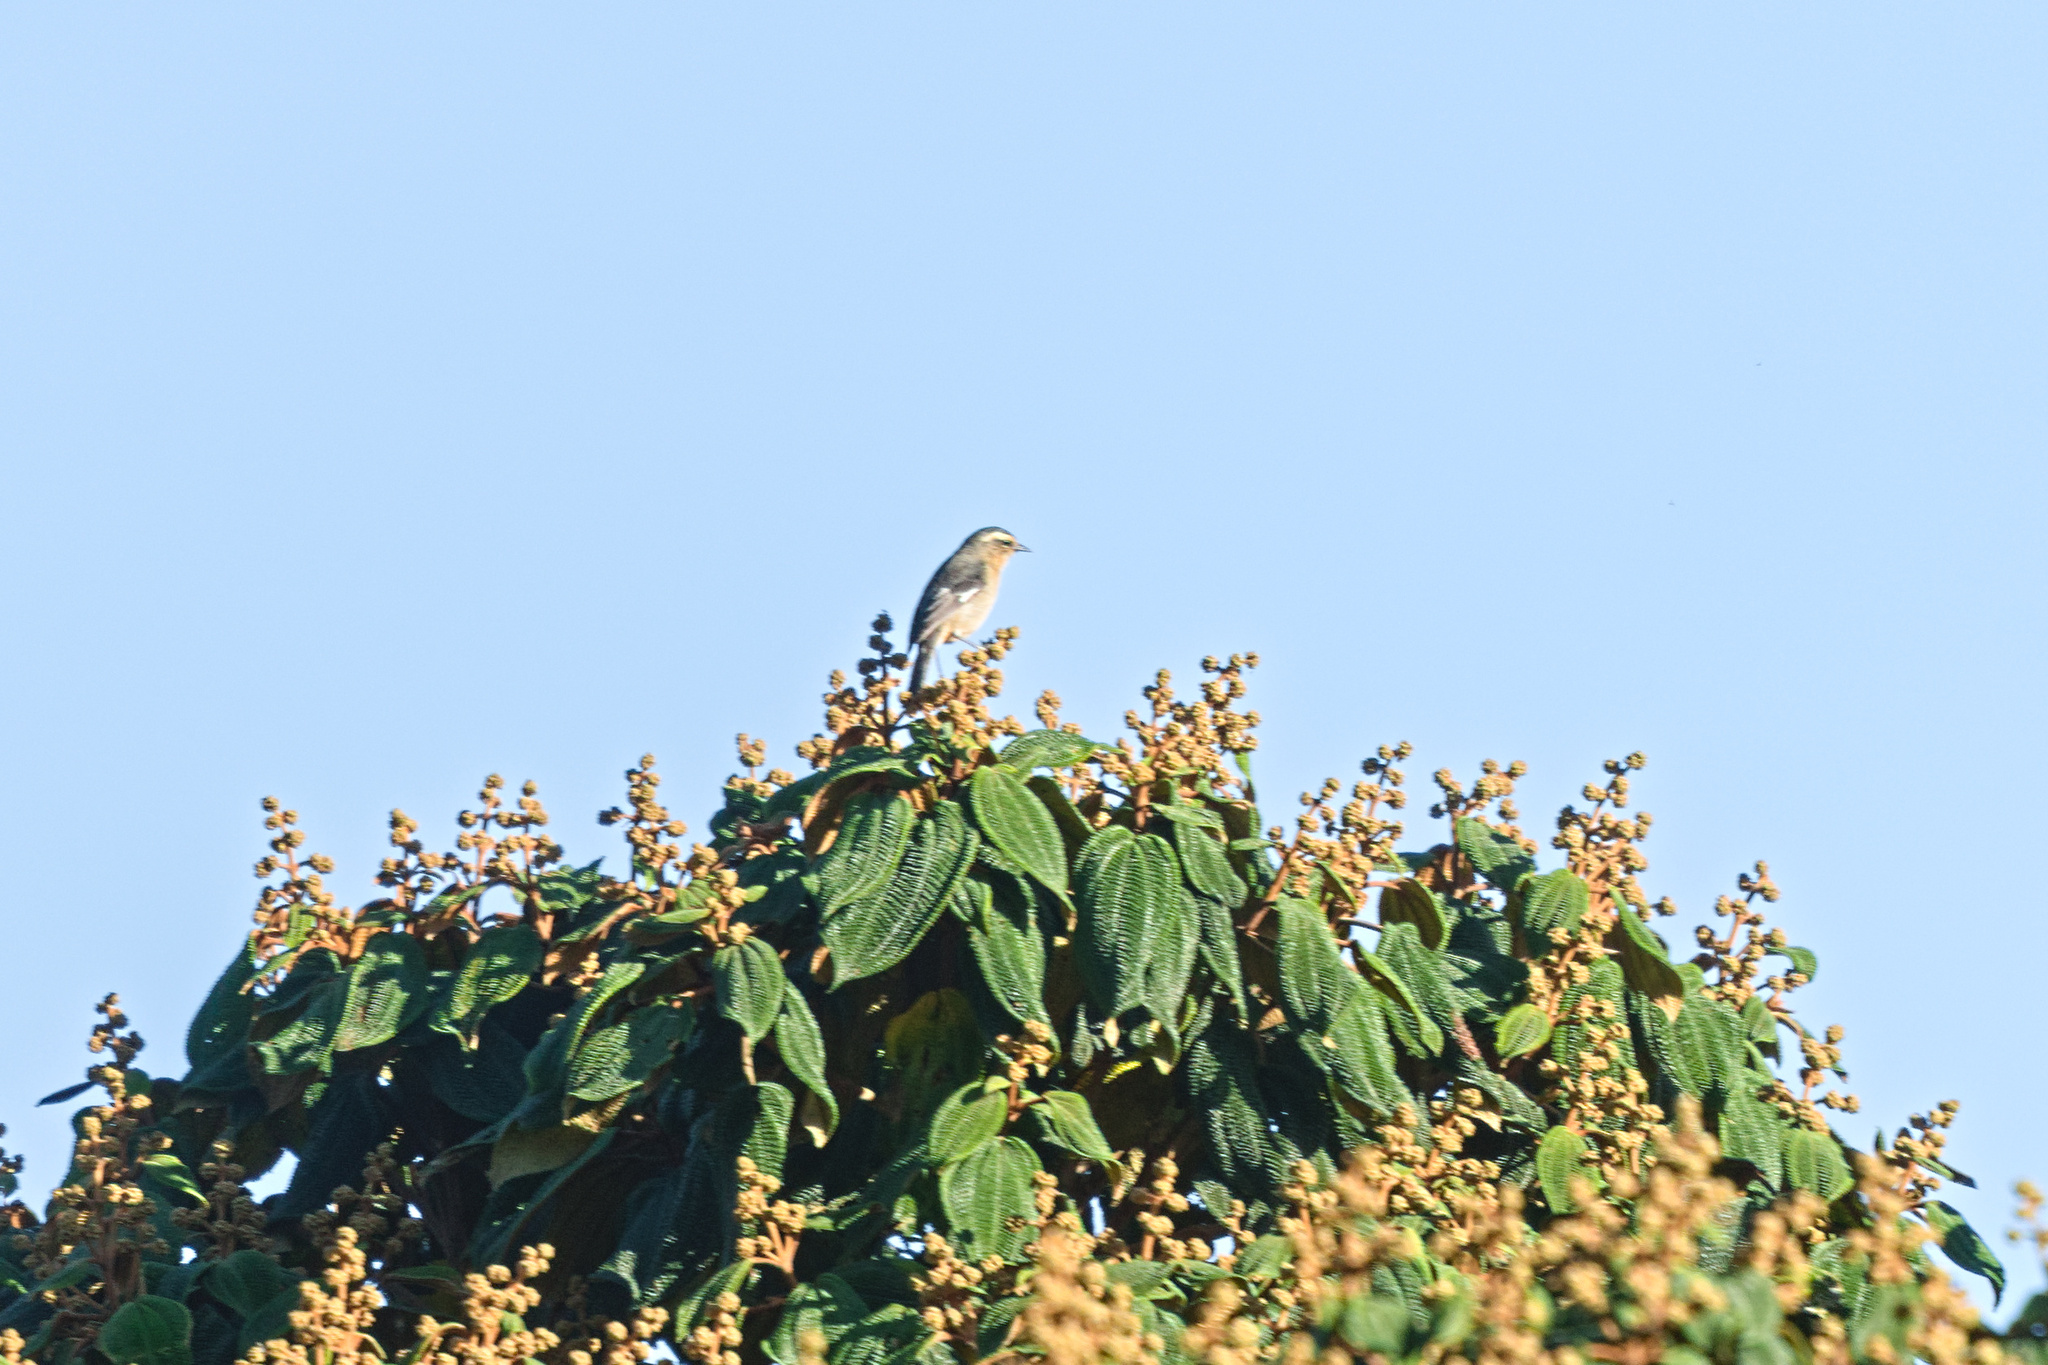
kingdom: Animalia
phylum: Chordata
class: Aves
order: Passeriformes
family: Thraupidae
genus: Conirostrum
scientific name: Conirostrum cinereum
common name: Cinereous conebill
